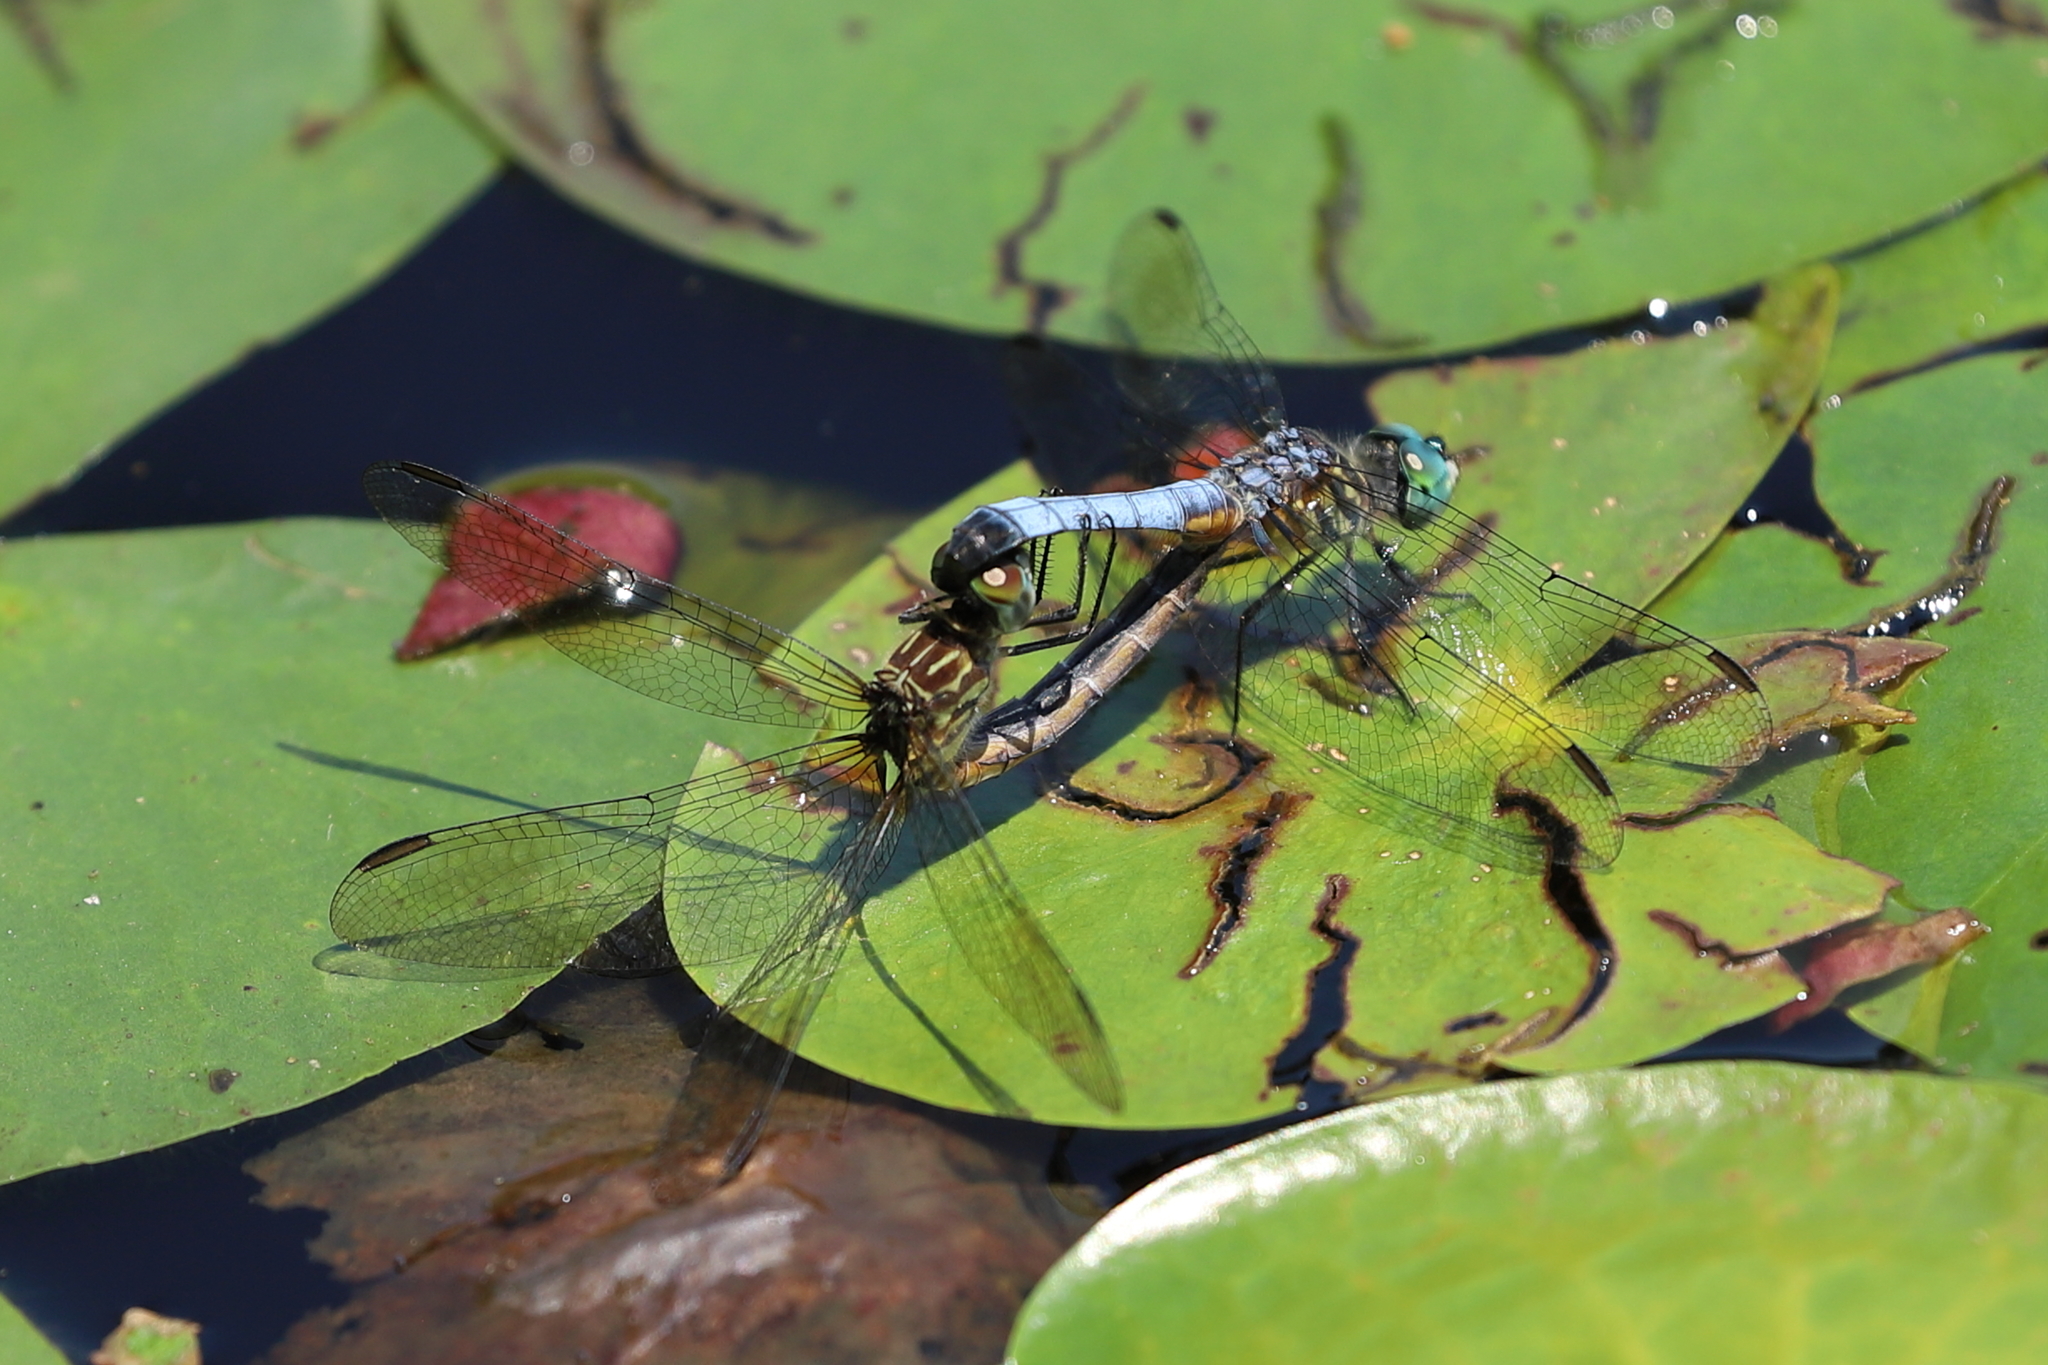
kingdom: Animalia
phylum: Arthropoda
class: Insecta
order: Odonata
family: Libellulidae
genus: Pachydiplax
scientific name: Pachydiplax longipennis
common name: Blue dasher
